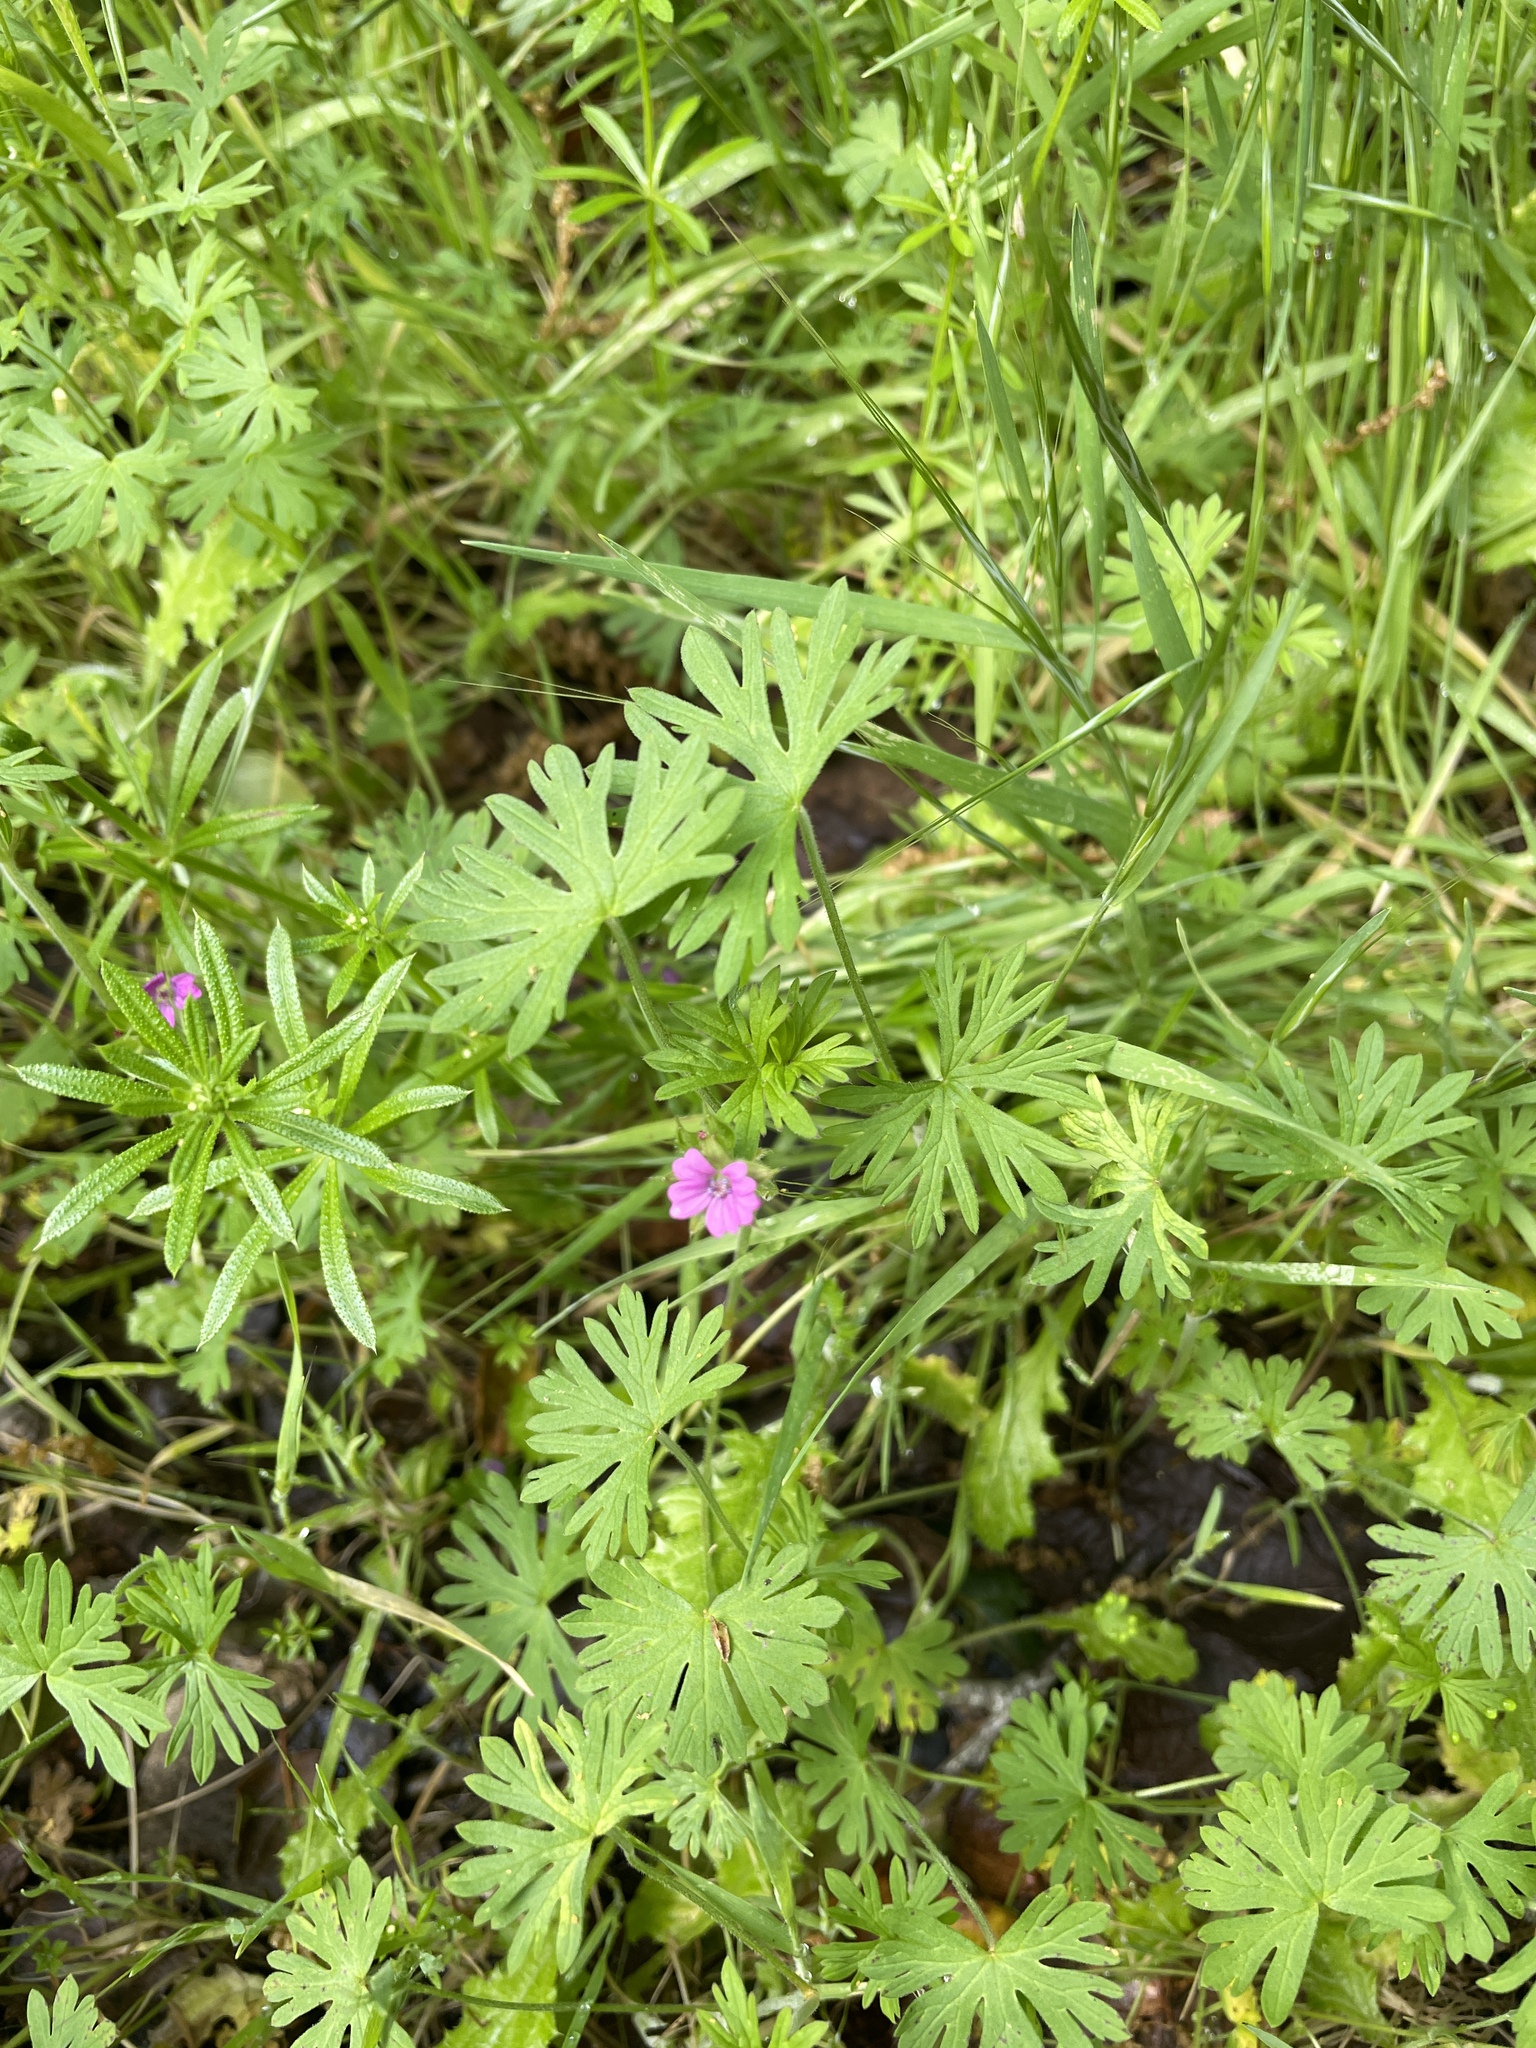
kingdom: Plantae
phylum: Tracheophyta
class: Magnoliopsida
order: Geraniales
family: Geraniaceae
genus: Geranium
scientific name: Geranium dissectum
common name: Cut-leaved crane's-bill
